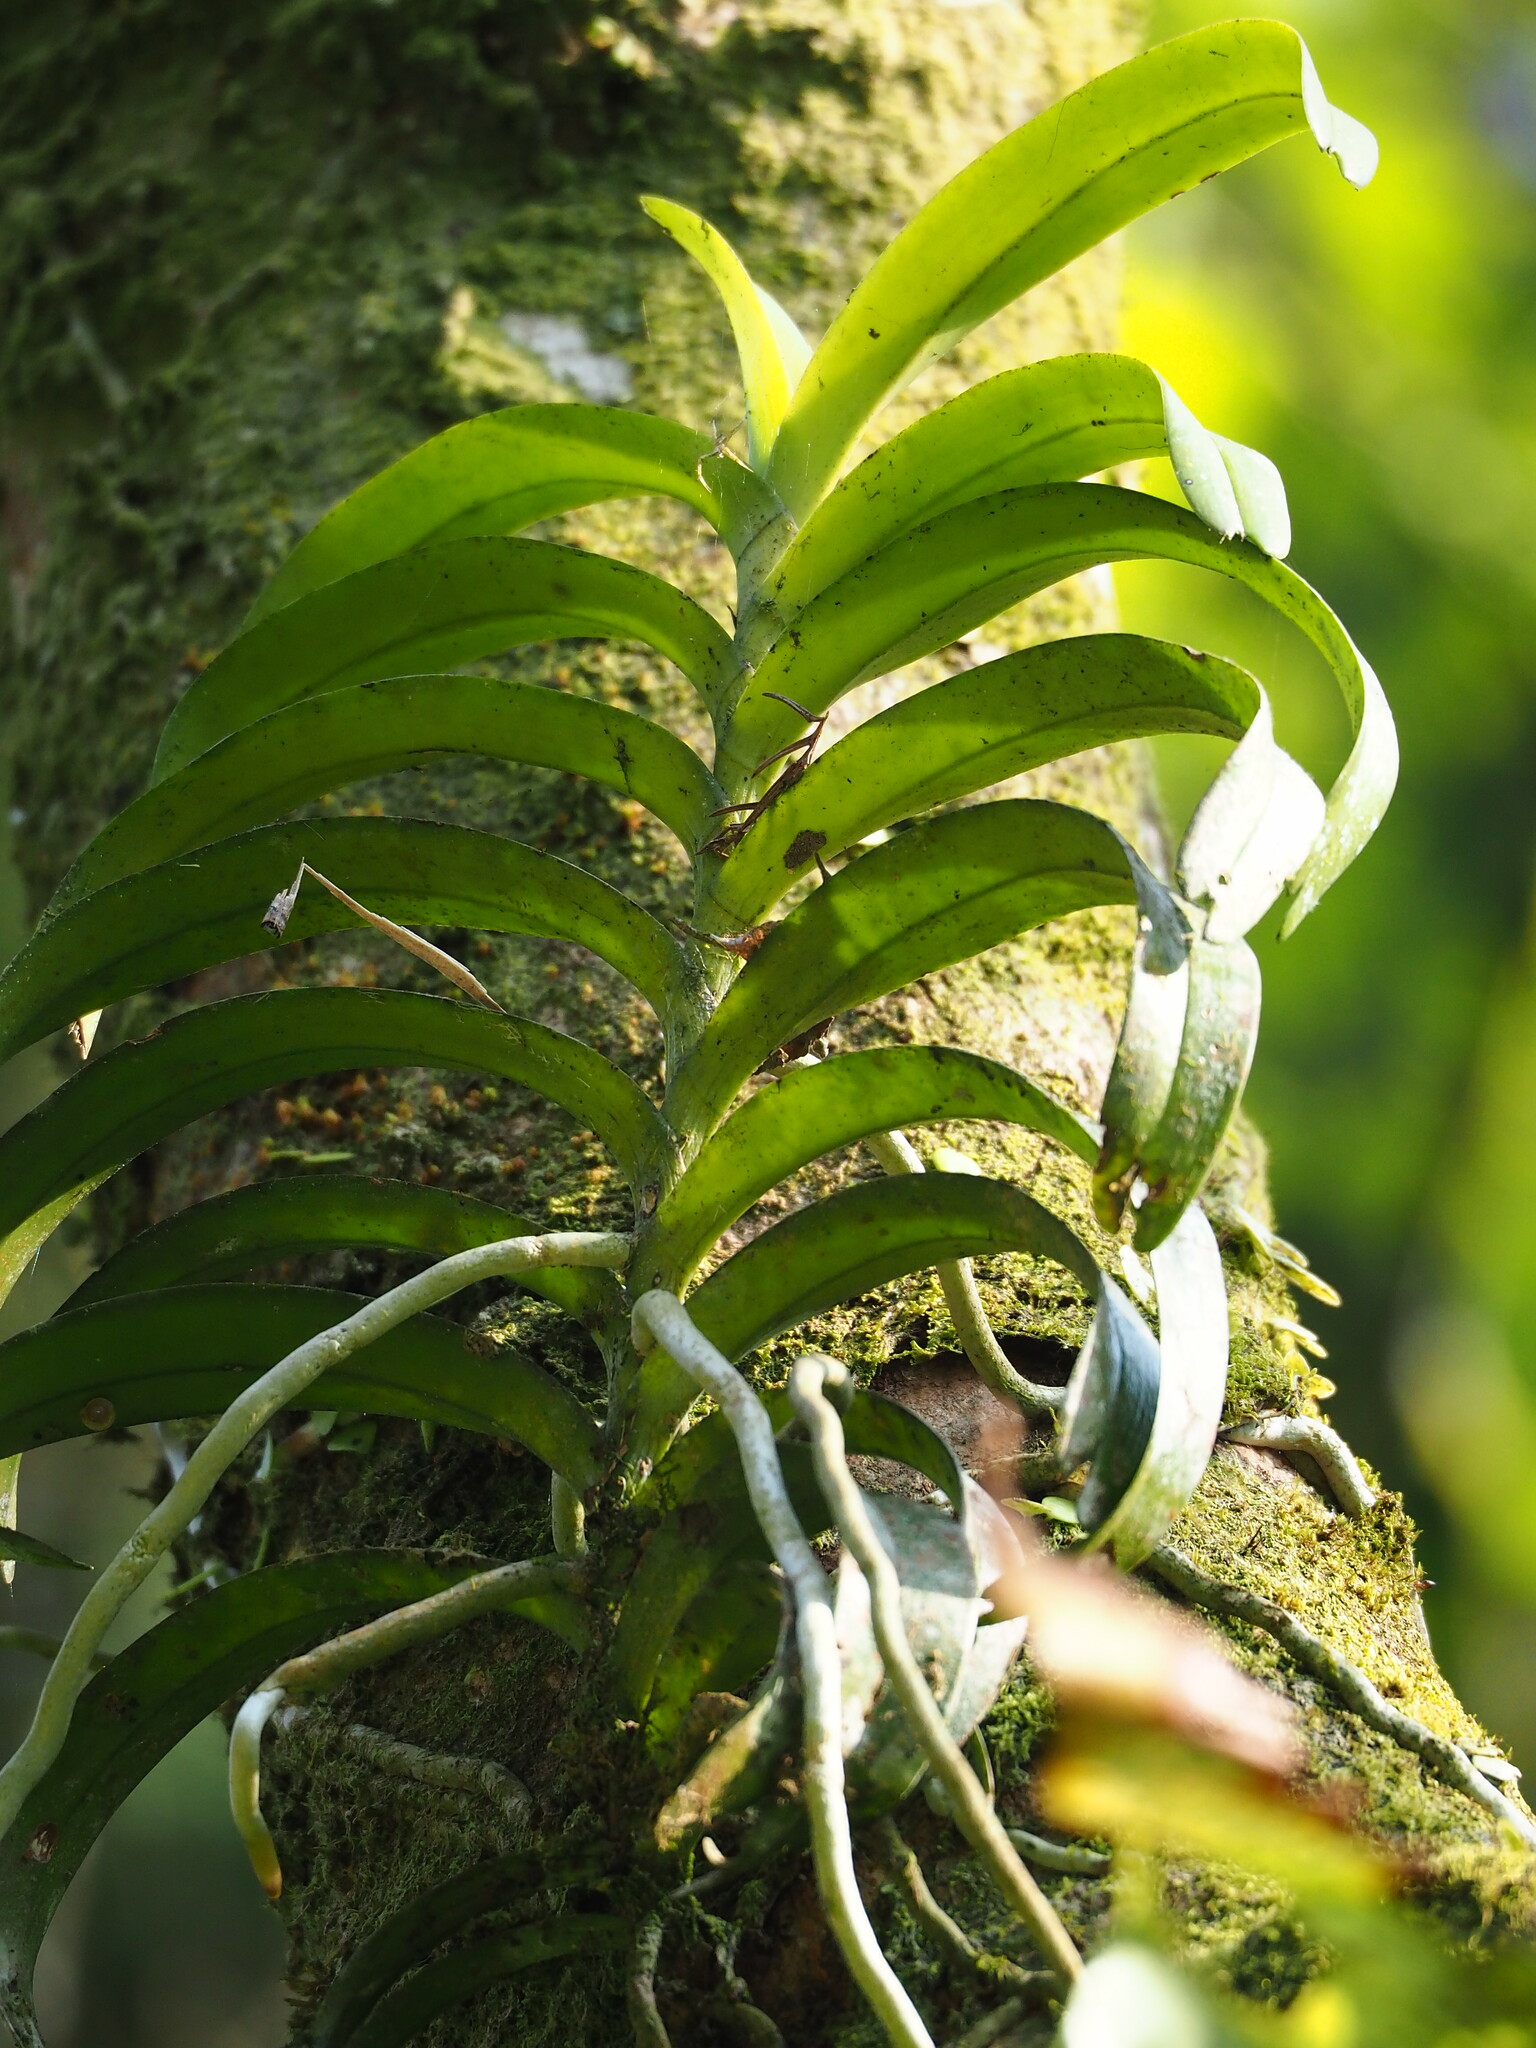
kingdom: Plantae
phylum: Tracheophyta
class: Liliopsida
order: Asparagales
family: Orchidaceae
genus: Cleisostoma
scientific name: Cleisostoma paniculatum
